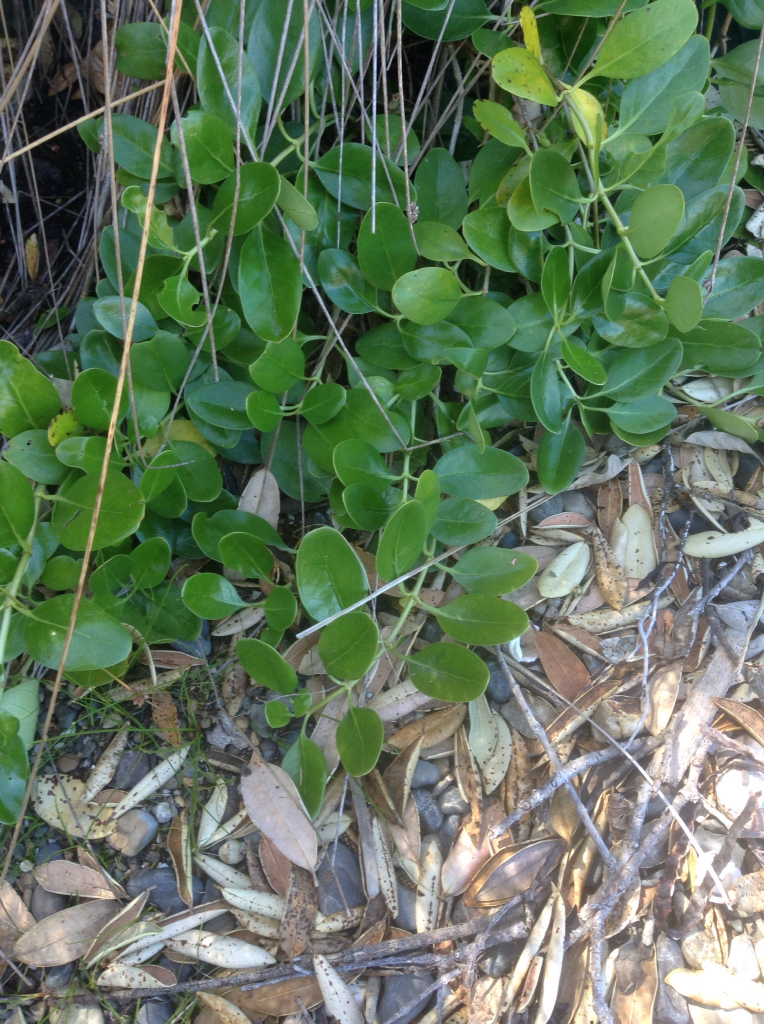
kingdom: Plantae
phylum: Tracheophyta
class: Magnoliopsida
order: Gentianales
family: Rubiaceae
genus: Coprosma
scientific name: Coprosma repens
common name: Tree bedstraw
